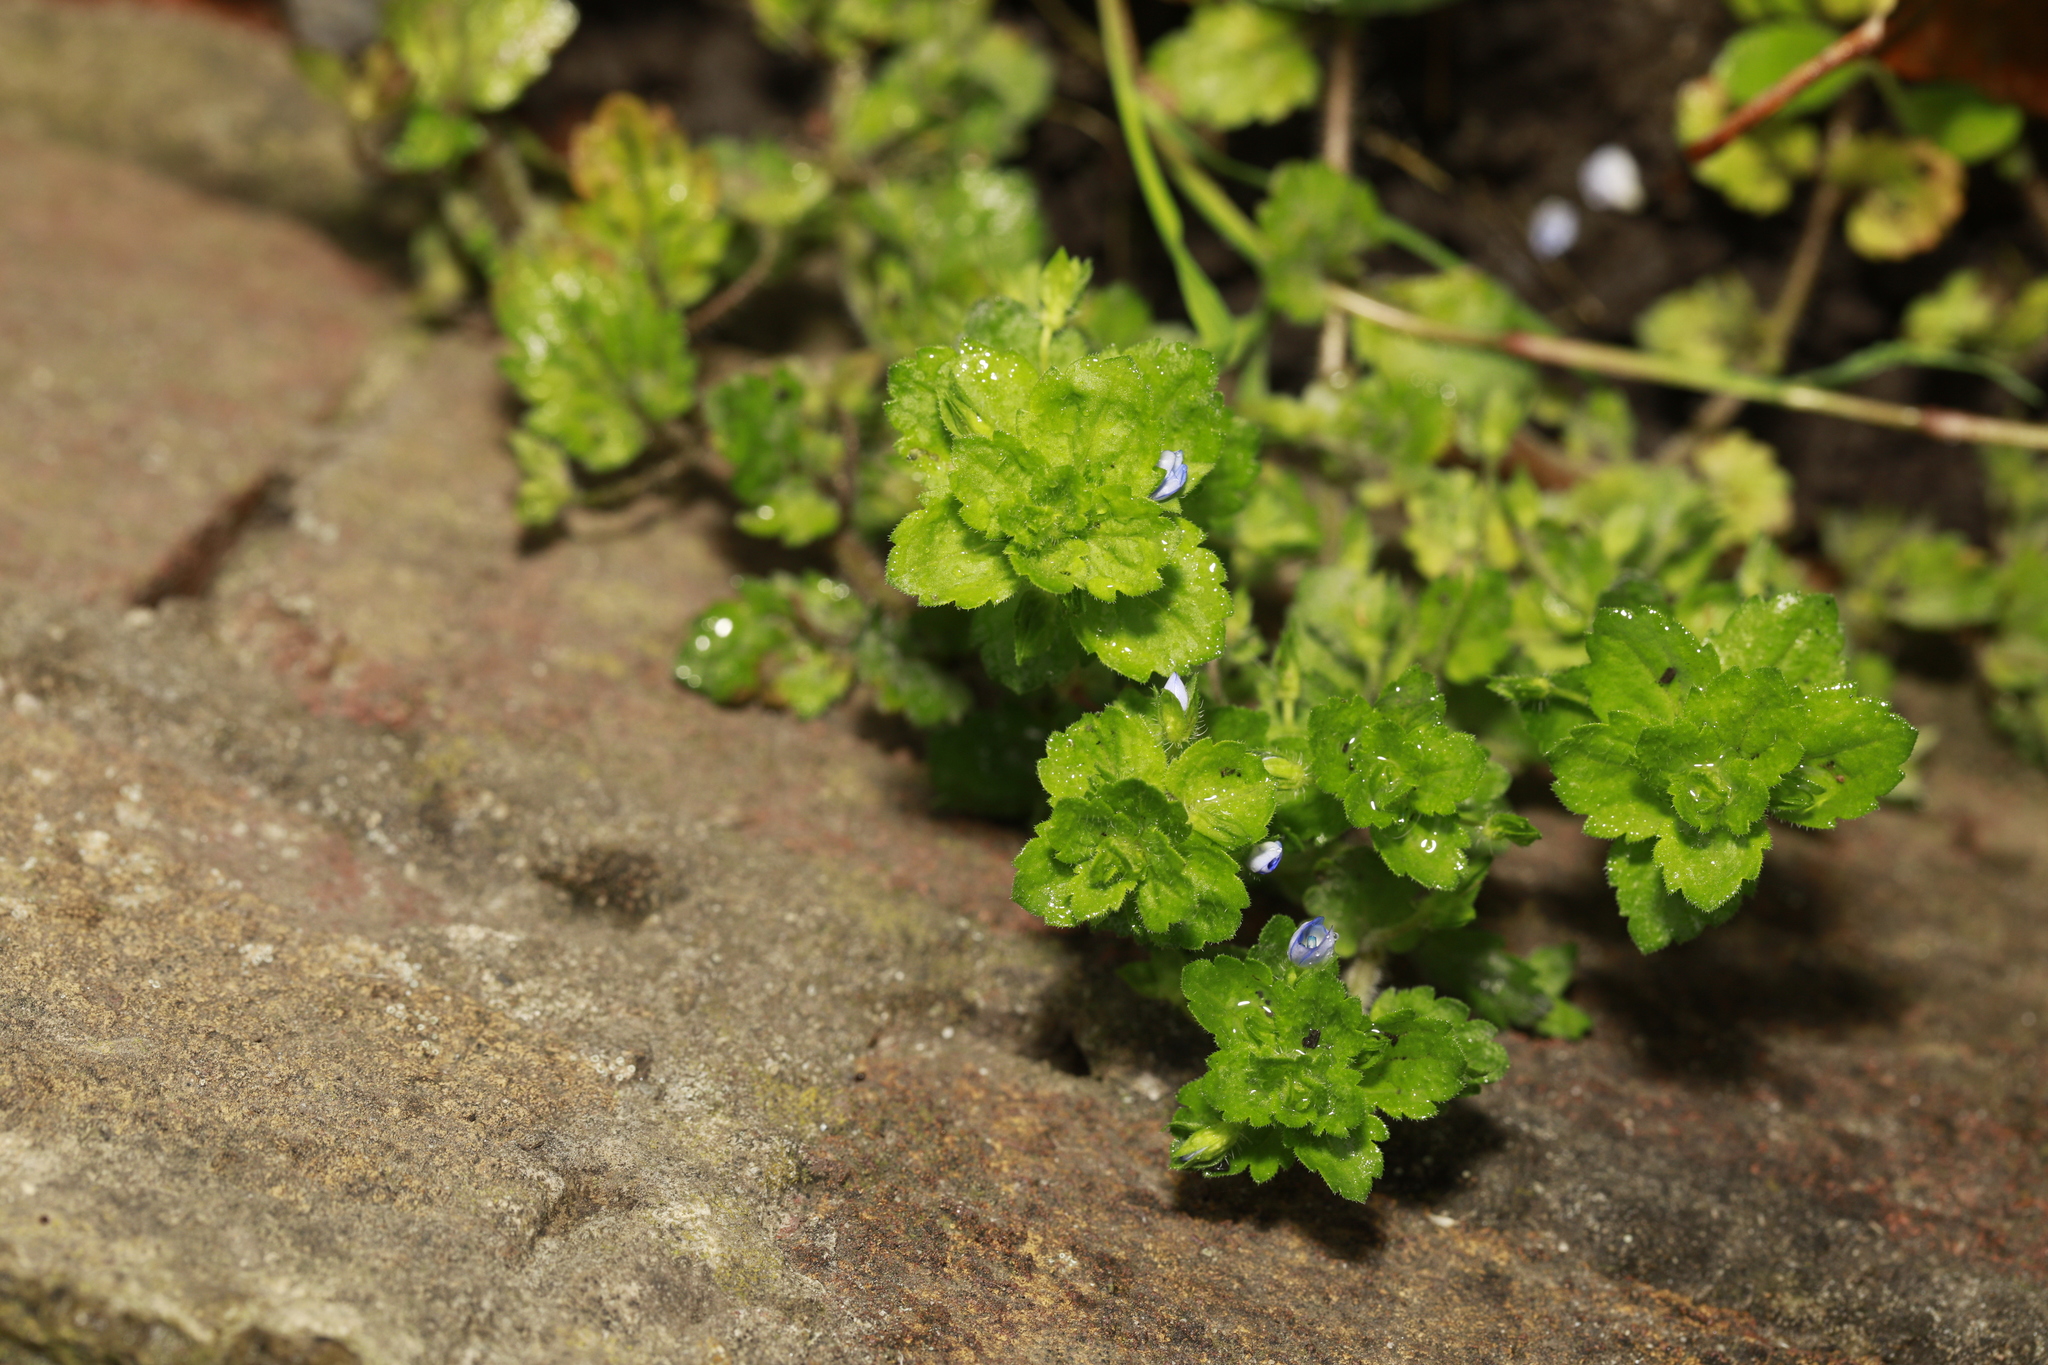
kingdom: Plantae
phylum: Tracheophyta
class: Magnoliopsida
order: Lamiales
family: Plantaginaceae
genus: Veronica
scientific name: Veronica persica
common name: Common field-speedwell
